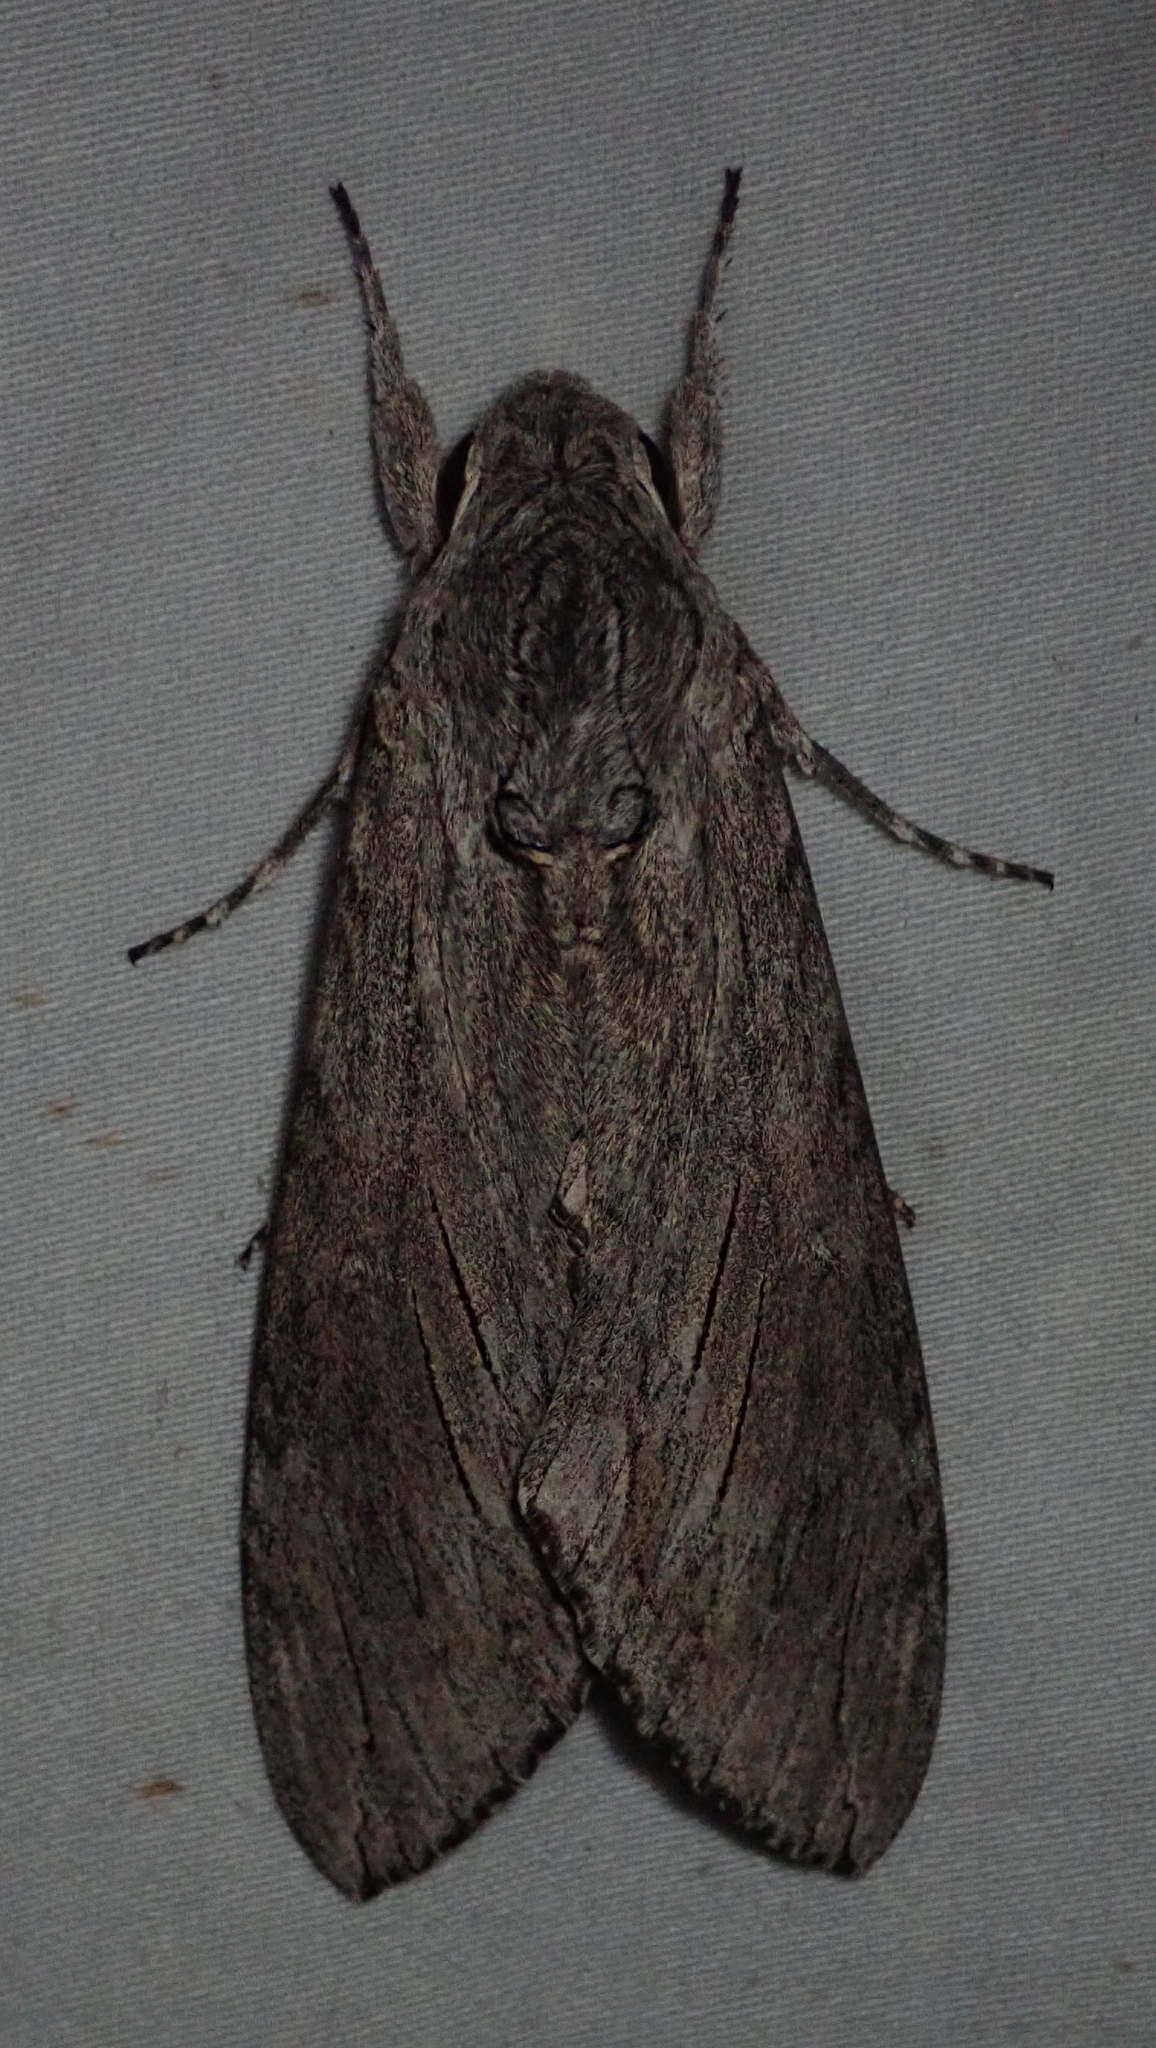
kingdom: Animalia
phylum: Arthropoda
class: Insecta
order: Lepidoptera
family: Sphingidae
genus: Agrius
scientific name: Agrius convolvuli
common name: Convolvulus hawkmoth
